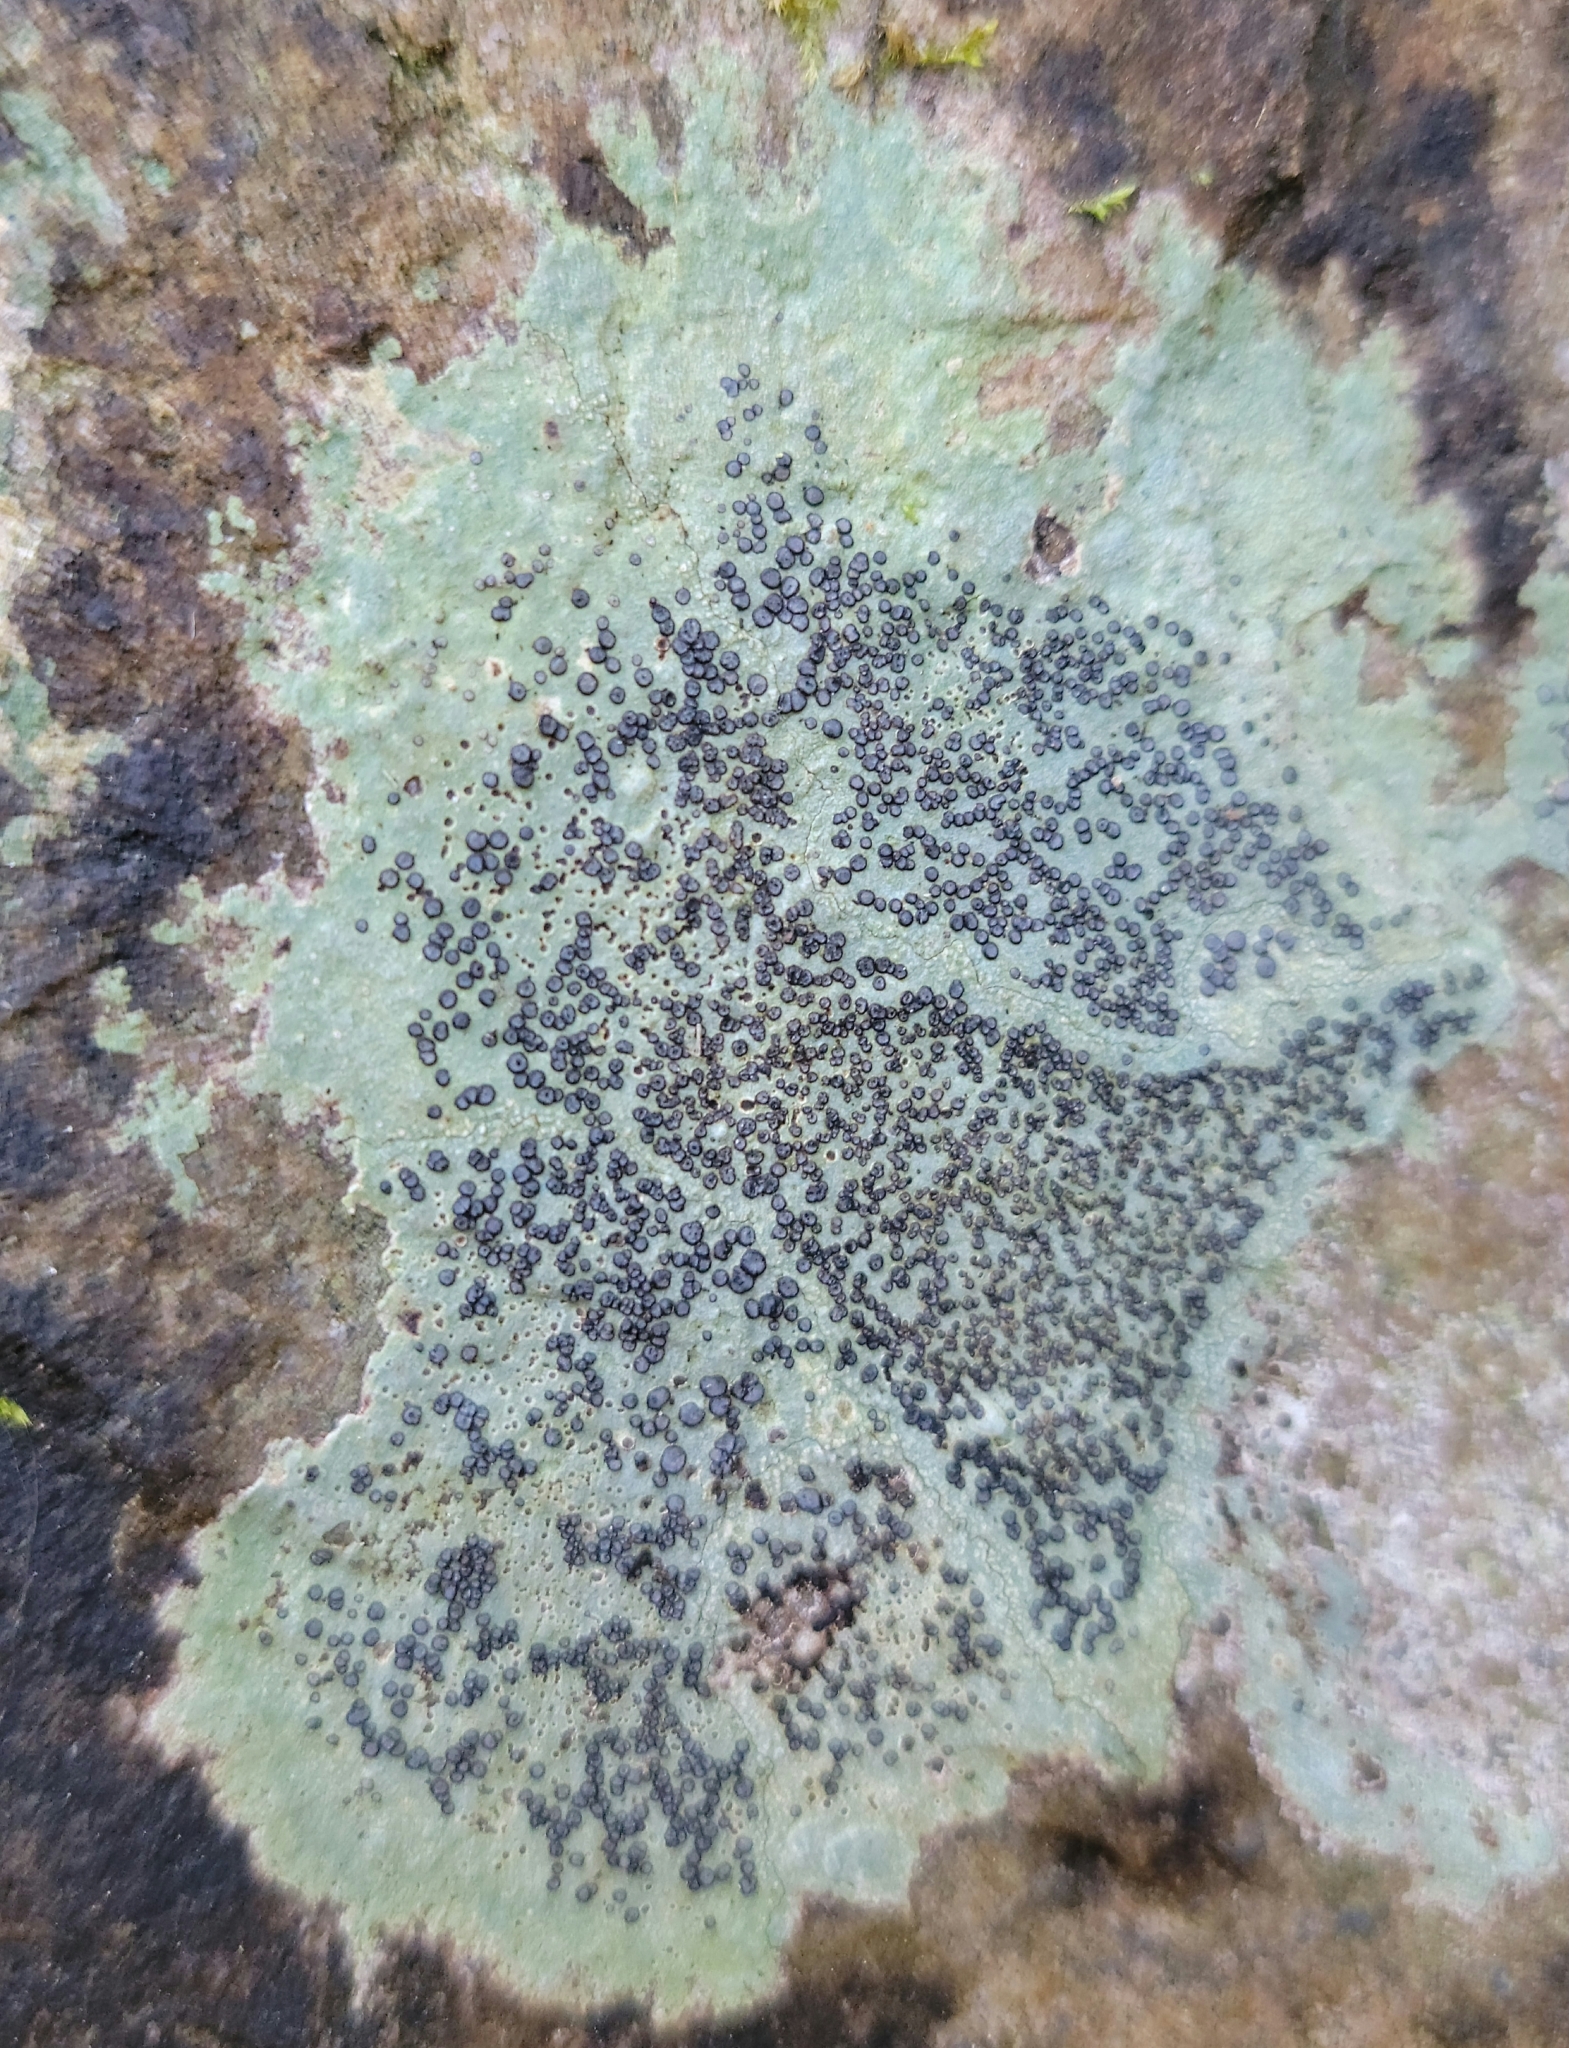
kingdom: Fungi
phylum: Ascomycota
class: Lecanoromycetes
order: Lecideales
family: Lecideaceae
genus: Porpidia
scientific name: Porpidia albocaerulescens
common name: Smokey-eyed boulder lichen
